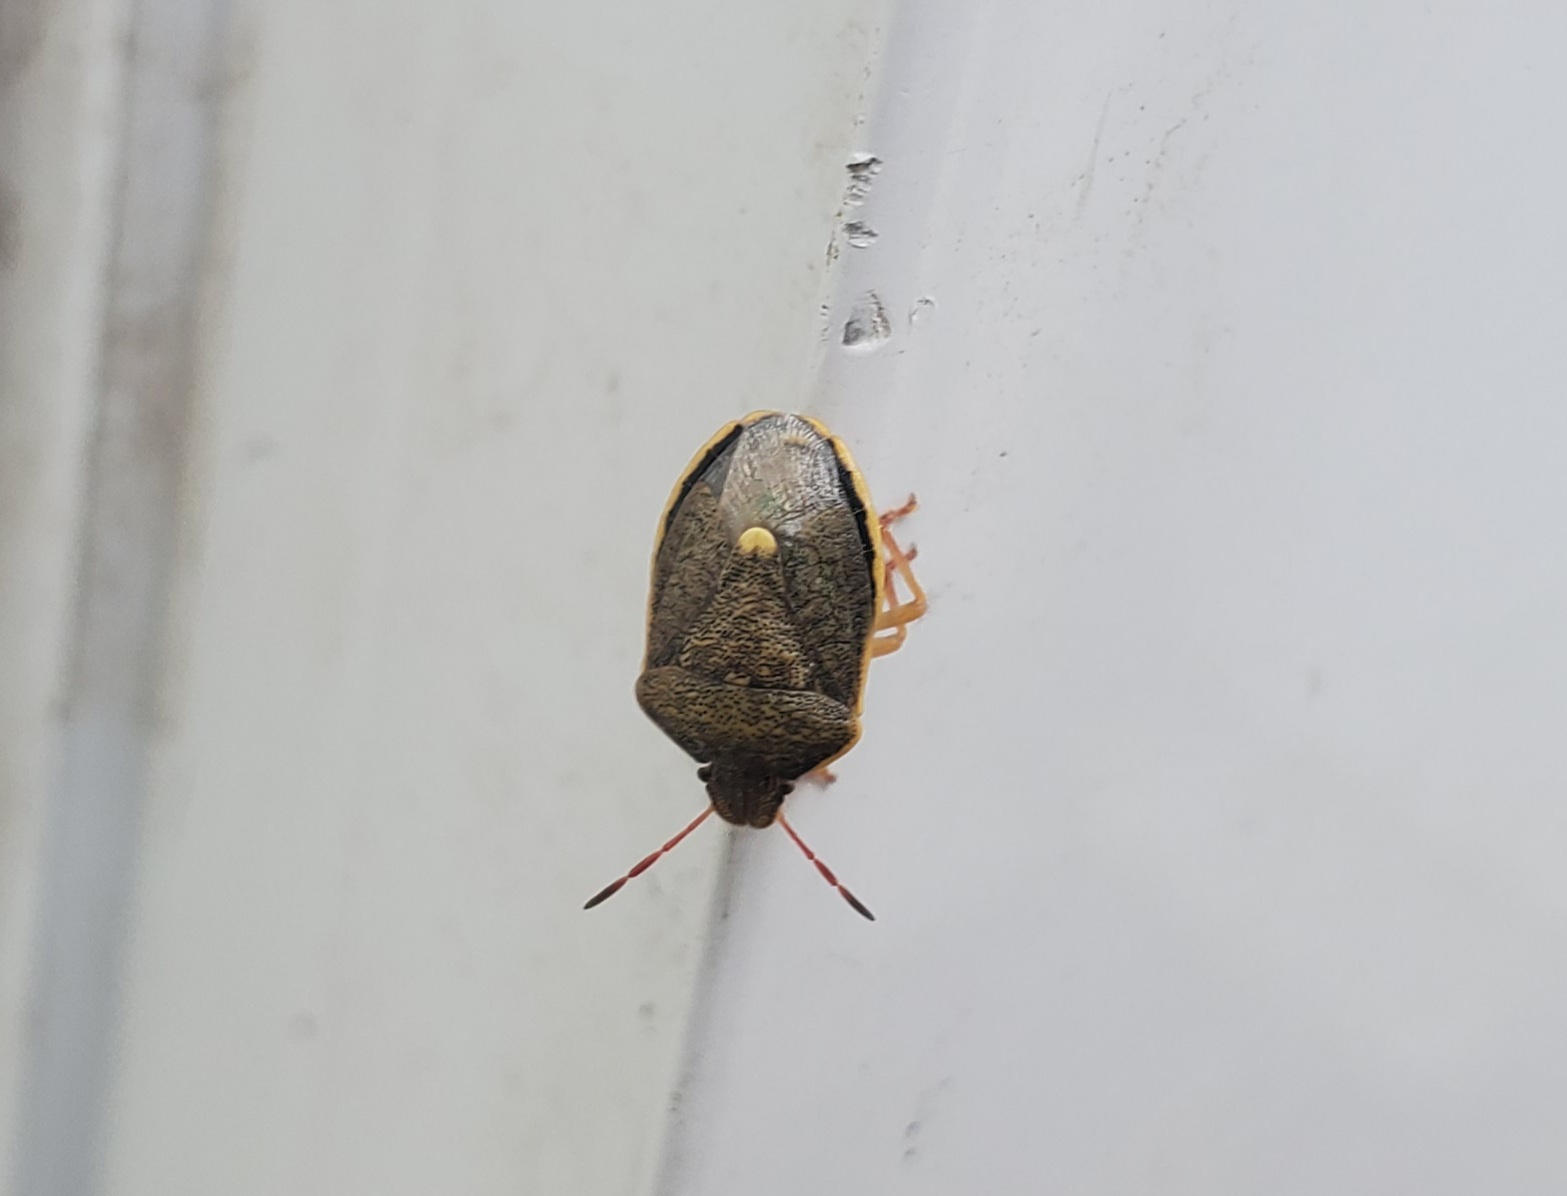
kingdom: Animalia
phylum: Arthropoda
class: Insecta
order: Hemiptera
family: Pentatomidae
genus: Holcostethus
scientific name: Holcostethus limbolarius
